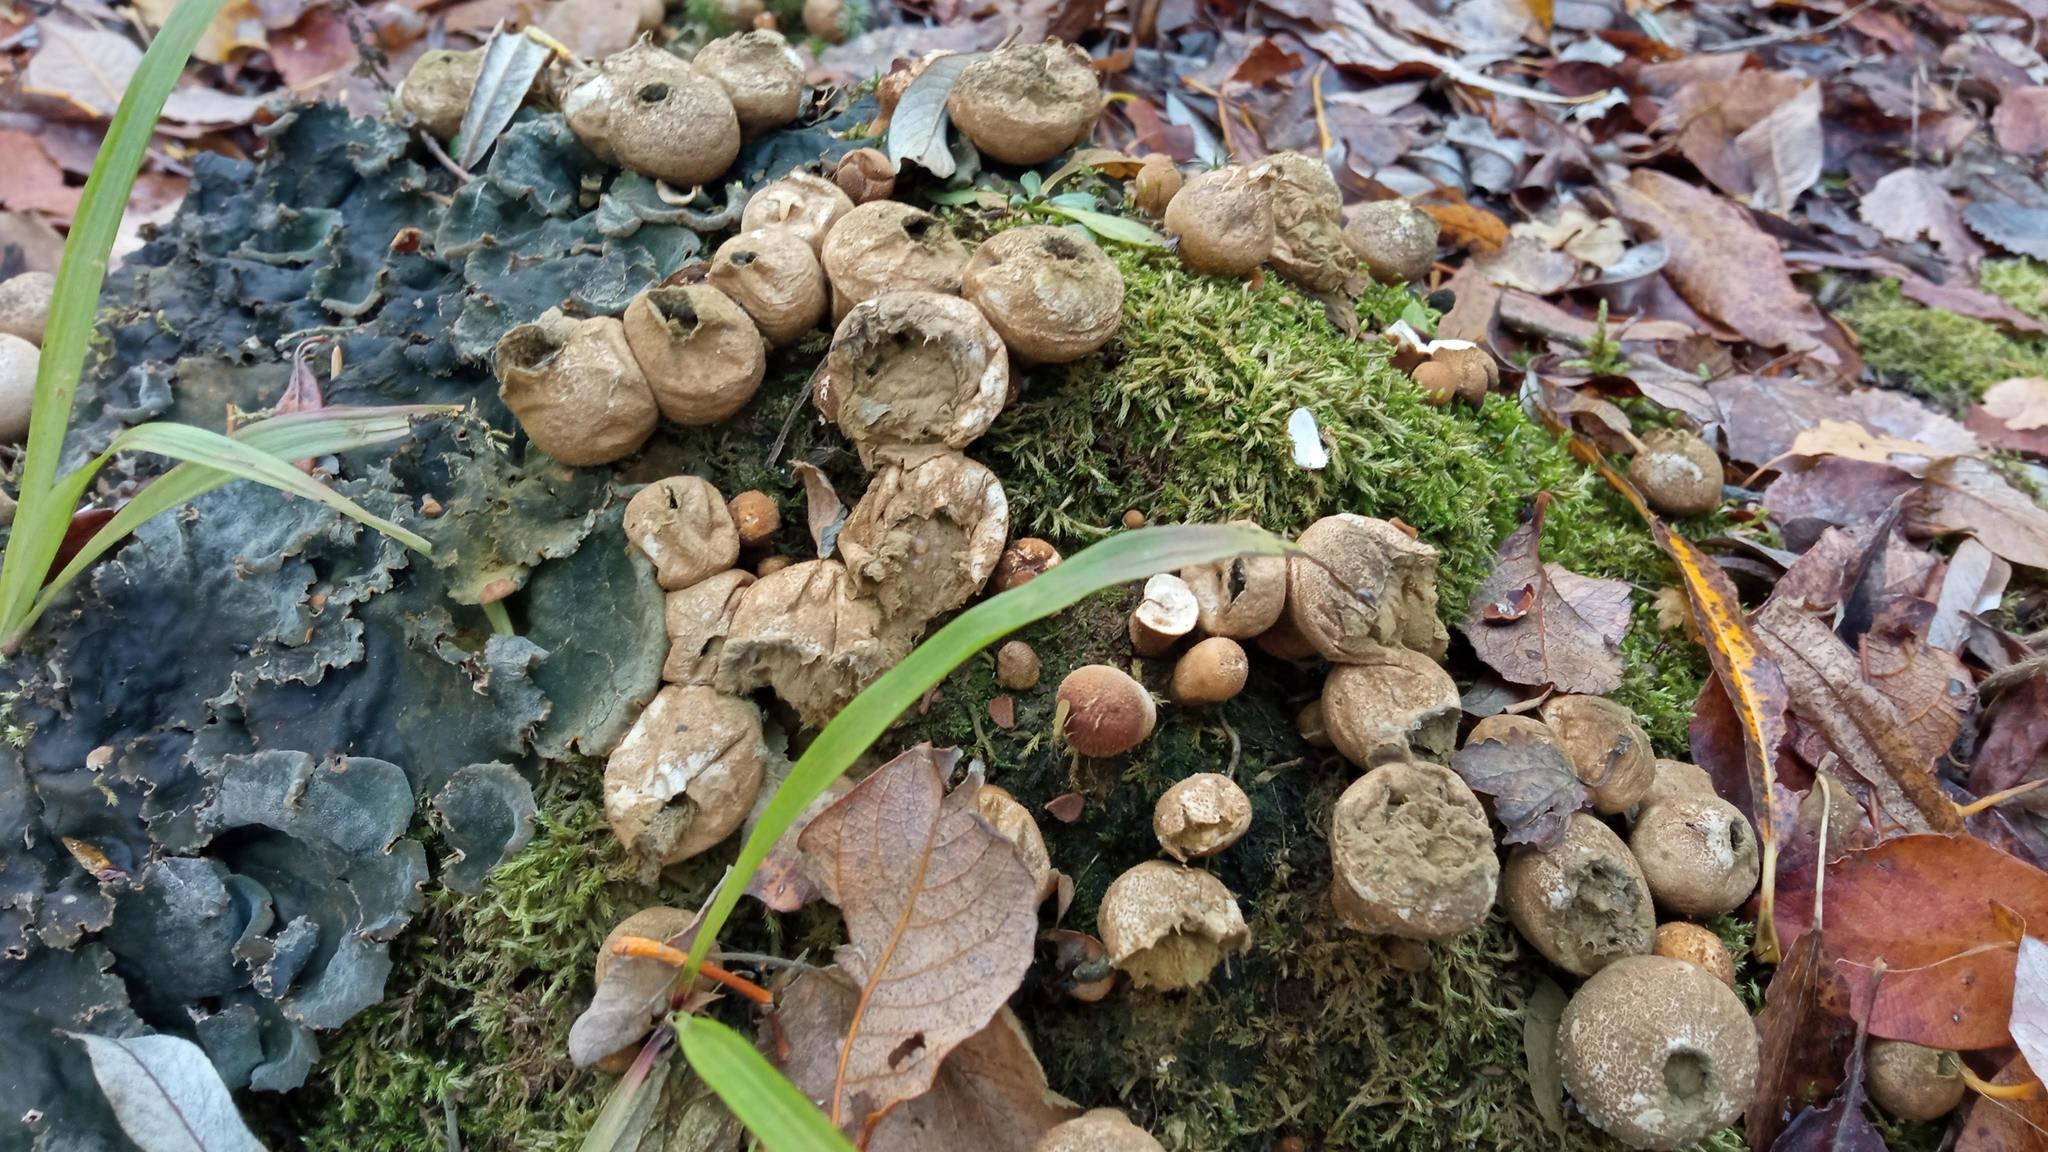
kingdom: Fungi
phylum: Basidiomycota
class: Agaricomycetes
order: Agaricales
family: Lycoperdaceae
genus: Apioperdon
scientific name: Apioperdon pyriforme
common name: Pear-shaped puffball
